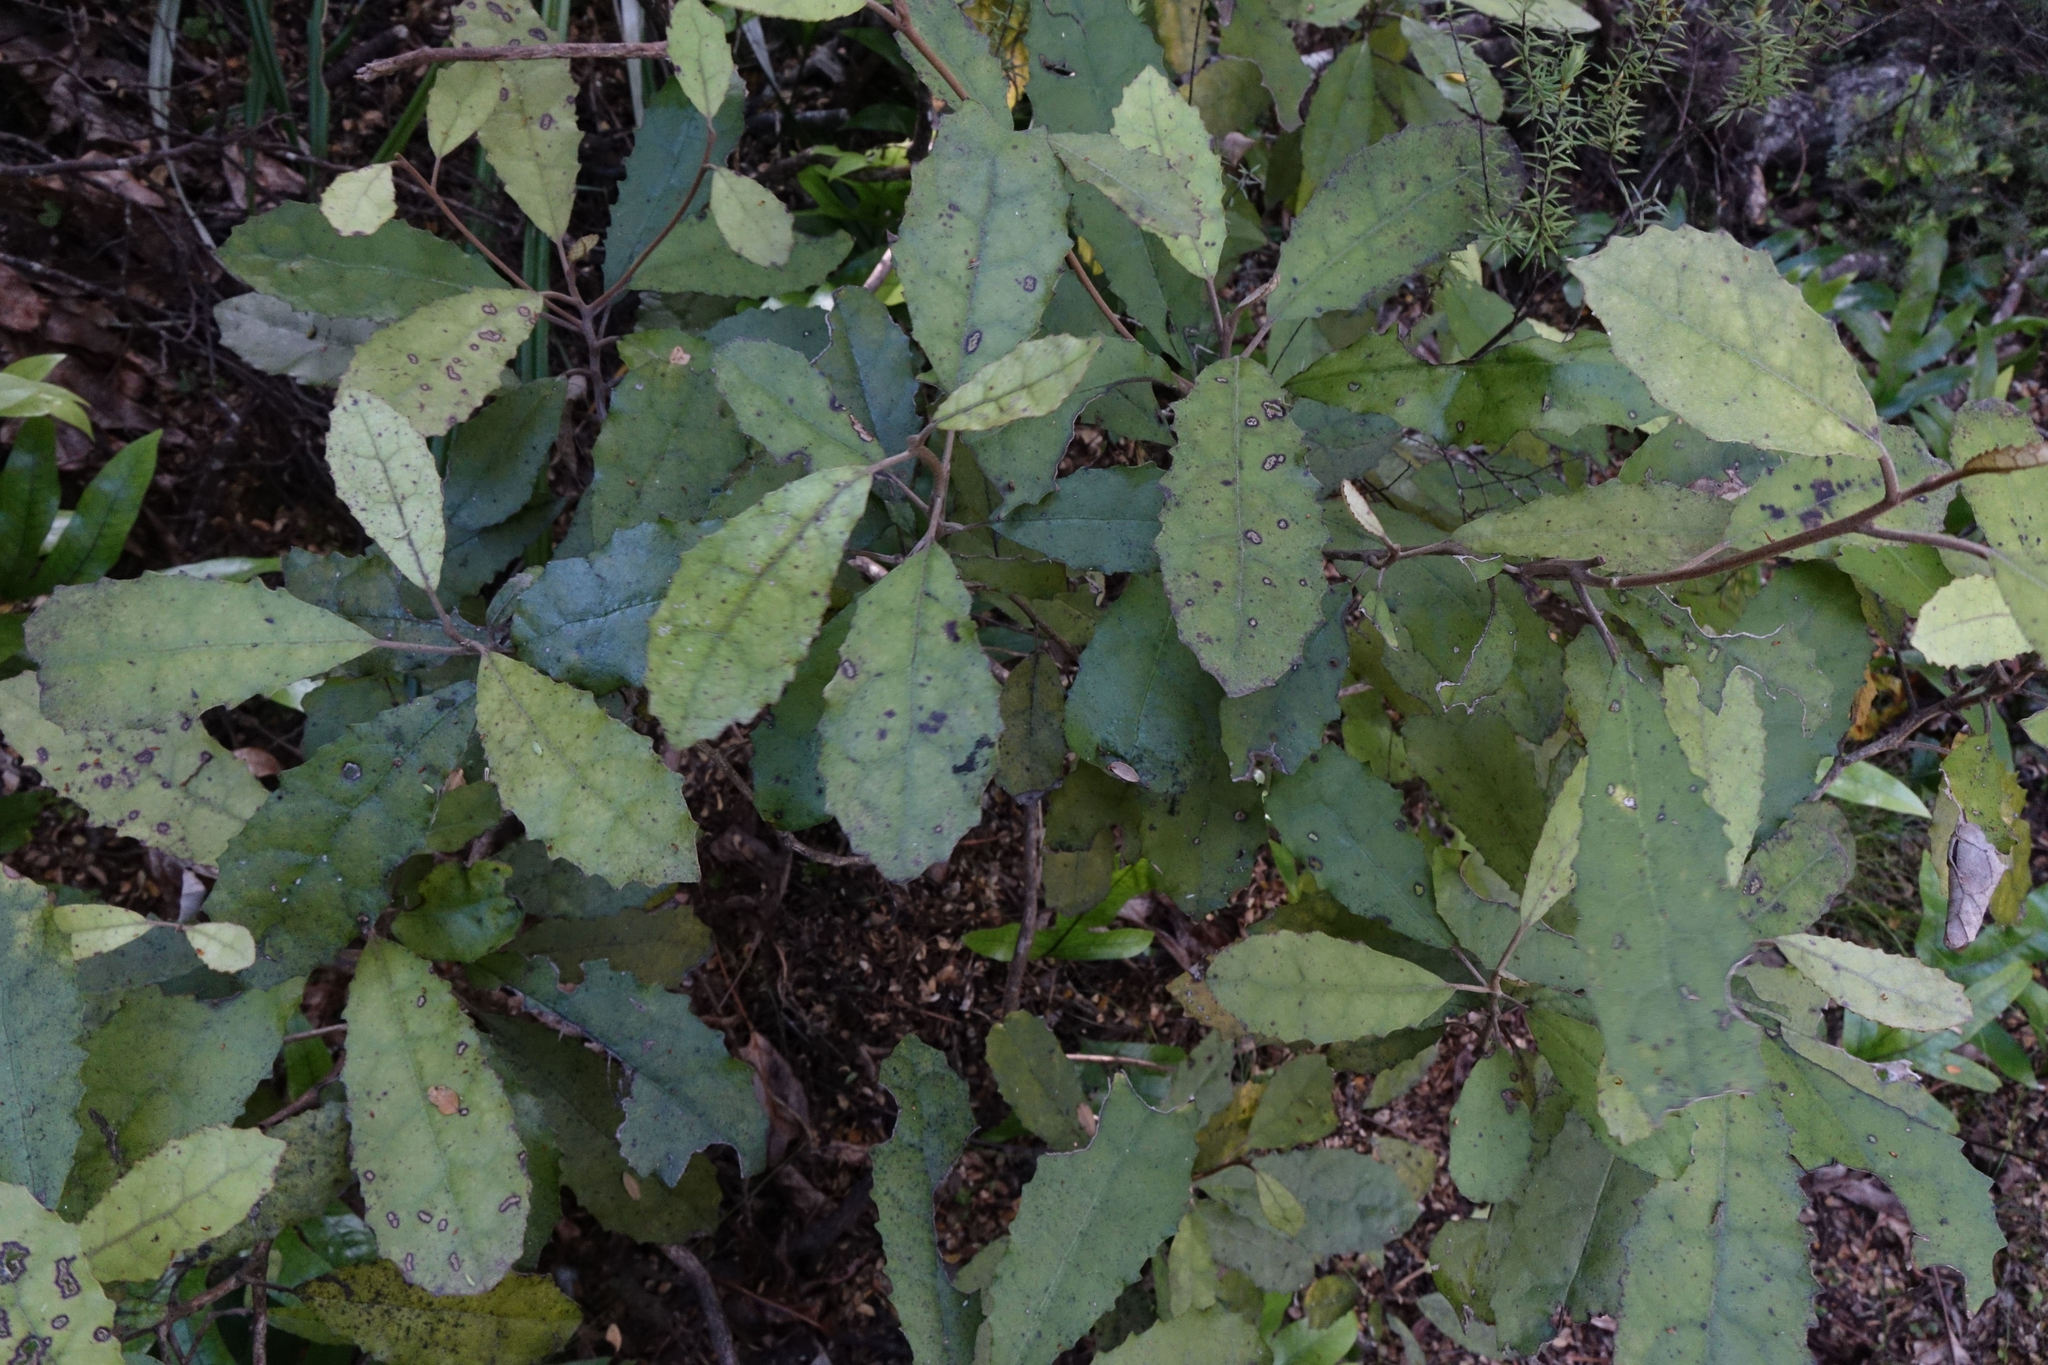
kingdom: Plantae
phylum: Tracheophyta
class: Magnoliopsida
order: Asterales
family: Asteraceae
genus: Olearia
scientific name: Olearia rani
